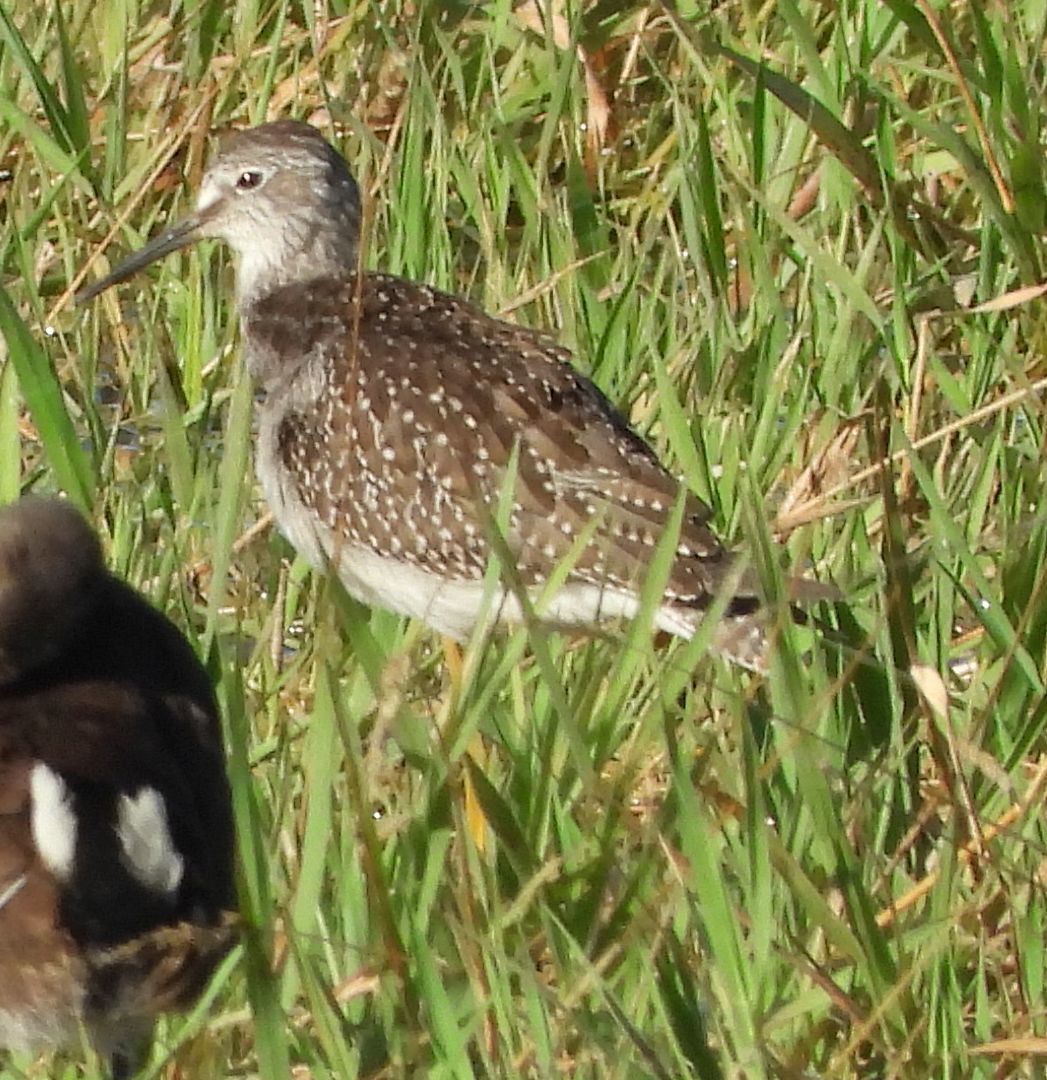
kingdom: Animalia
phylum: Chordata
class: Aves
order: Charadriiformes
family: Scolopacidae
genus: Tringa
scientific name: Tringa flavipes
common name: Lesser yellowlegs
